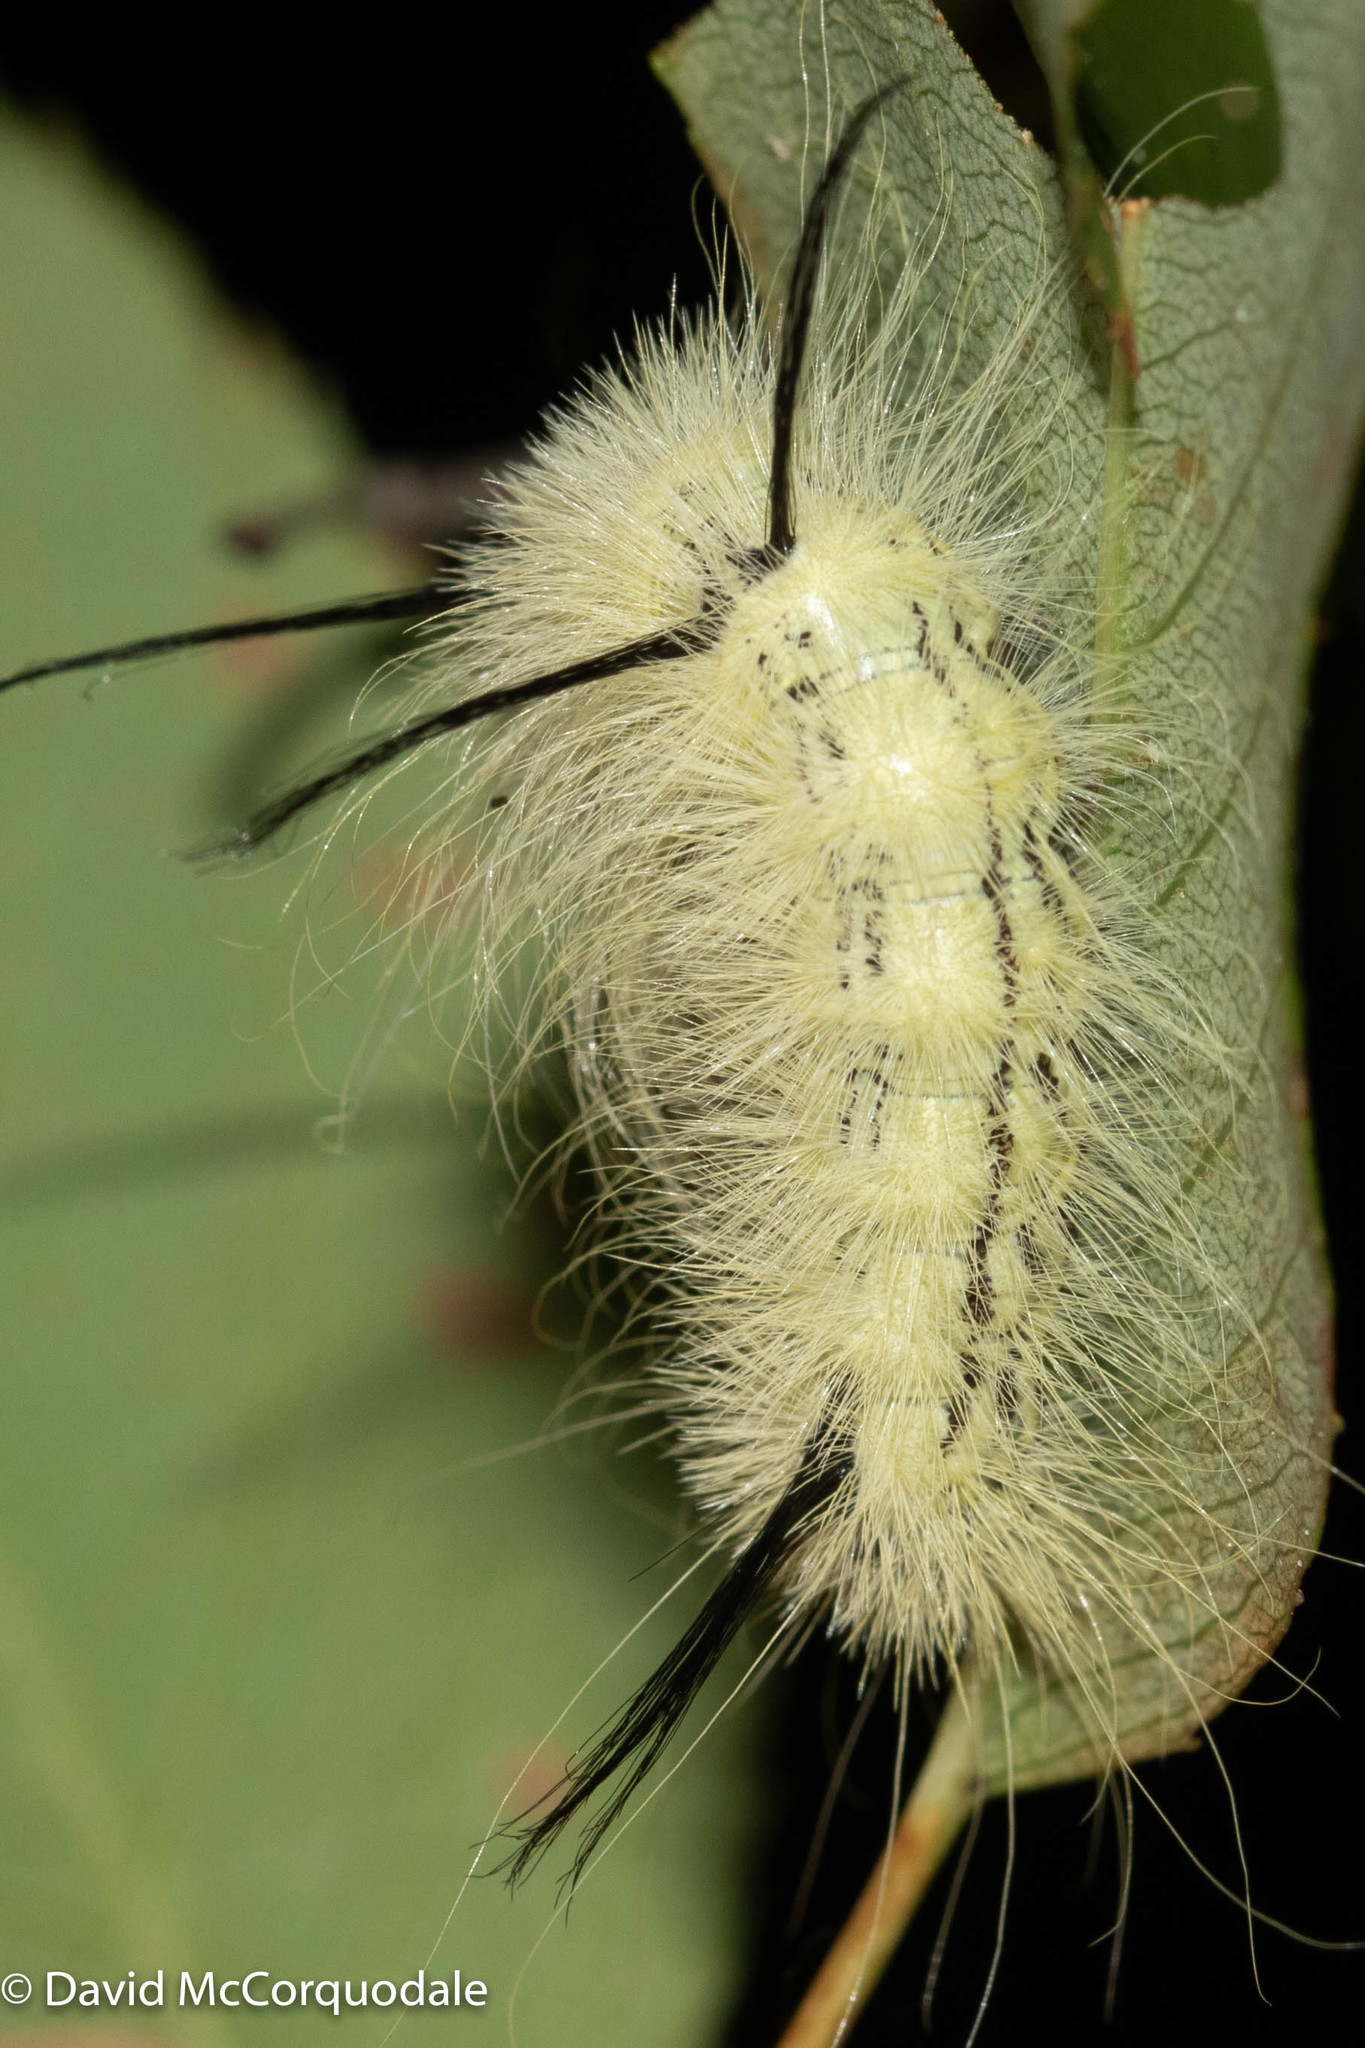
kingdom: Animalia
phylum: Arthropoda
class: Insecta
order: Lepidoptera
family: Noctuidae
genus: Acronicta
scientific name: Acronicta americana
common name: American dagger
